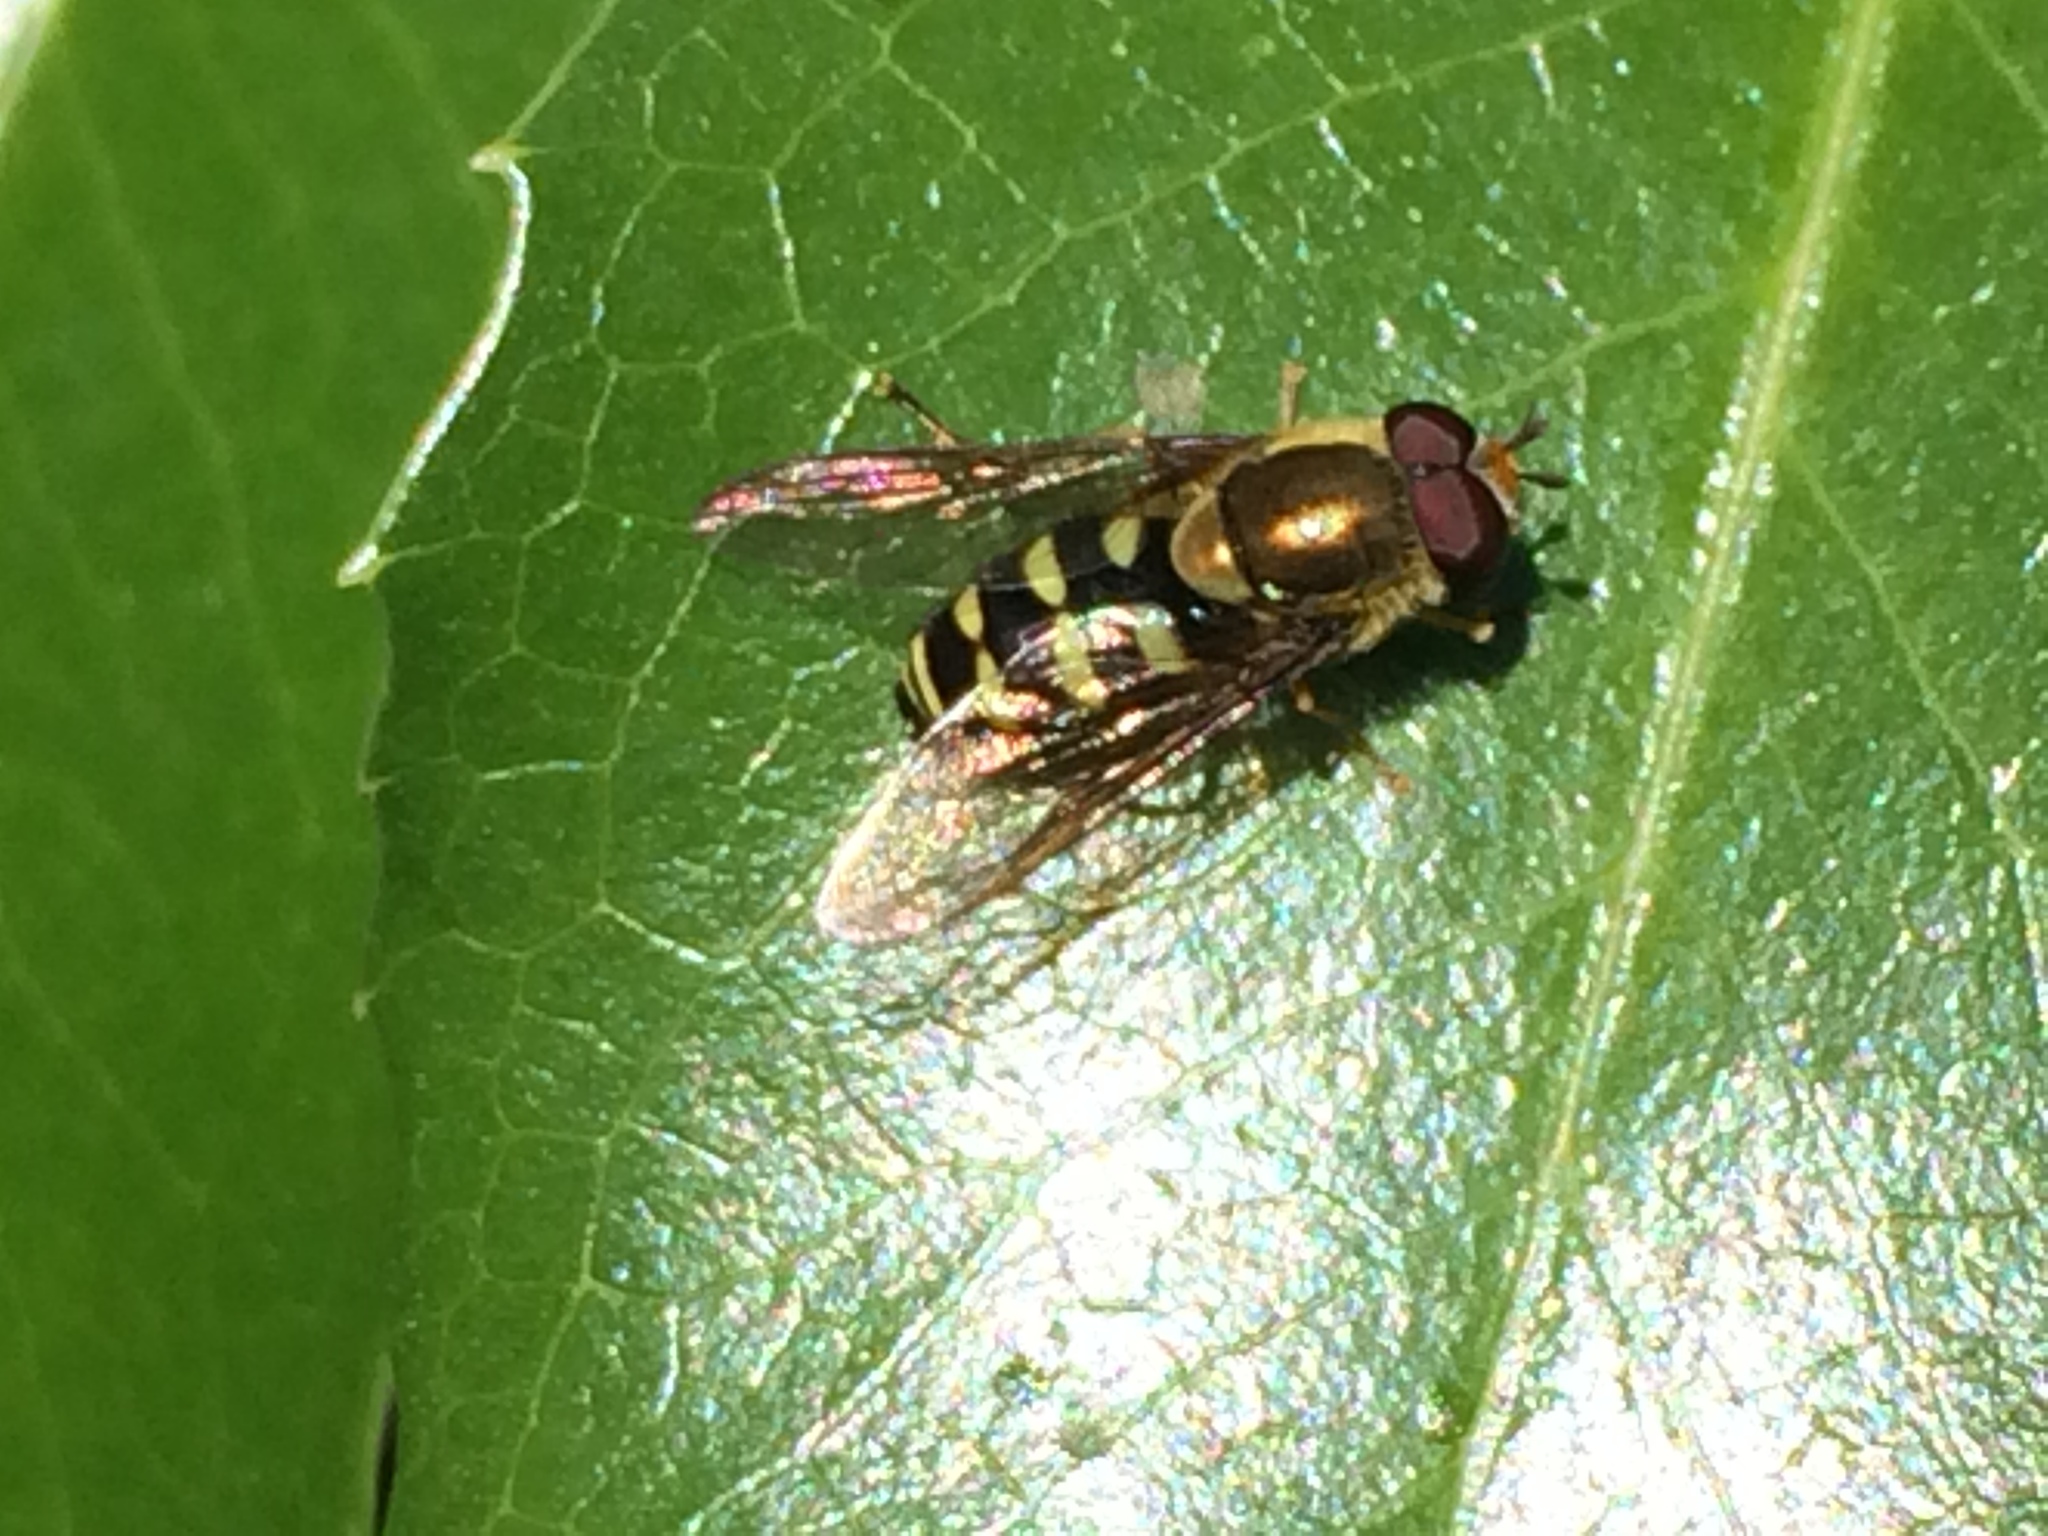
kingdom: Animalia
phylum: Arthropoda
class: Insecta
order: Diptera
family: Syrphidae
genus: Syrphus
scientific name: Syrphus opinator
